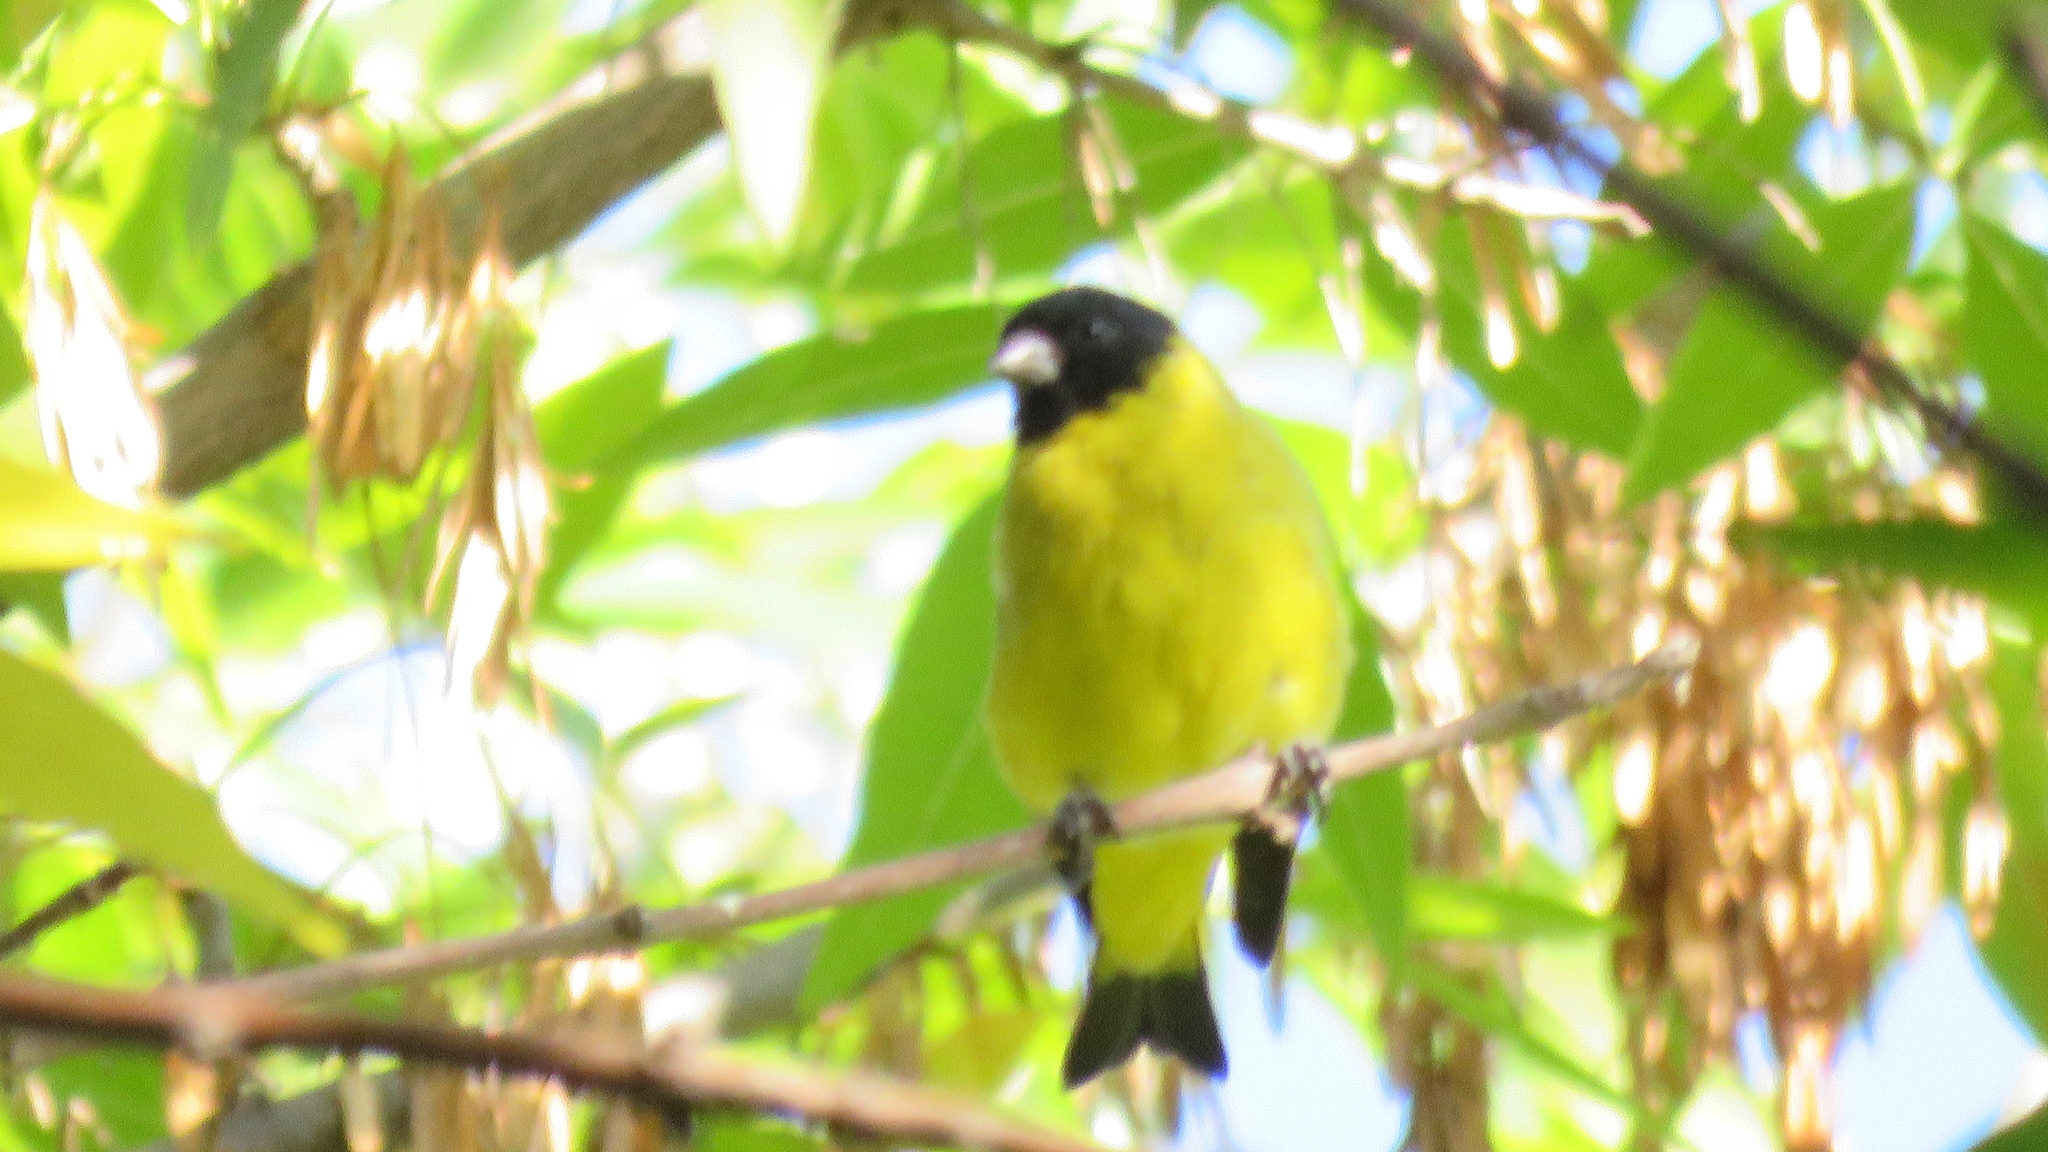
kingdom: Animalia
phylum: Chordata
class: Aves
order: Passeriformes
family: Fringillidae
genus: Spinus
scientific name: Spinus magellanicus
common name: Hooded siskin
